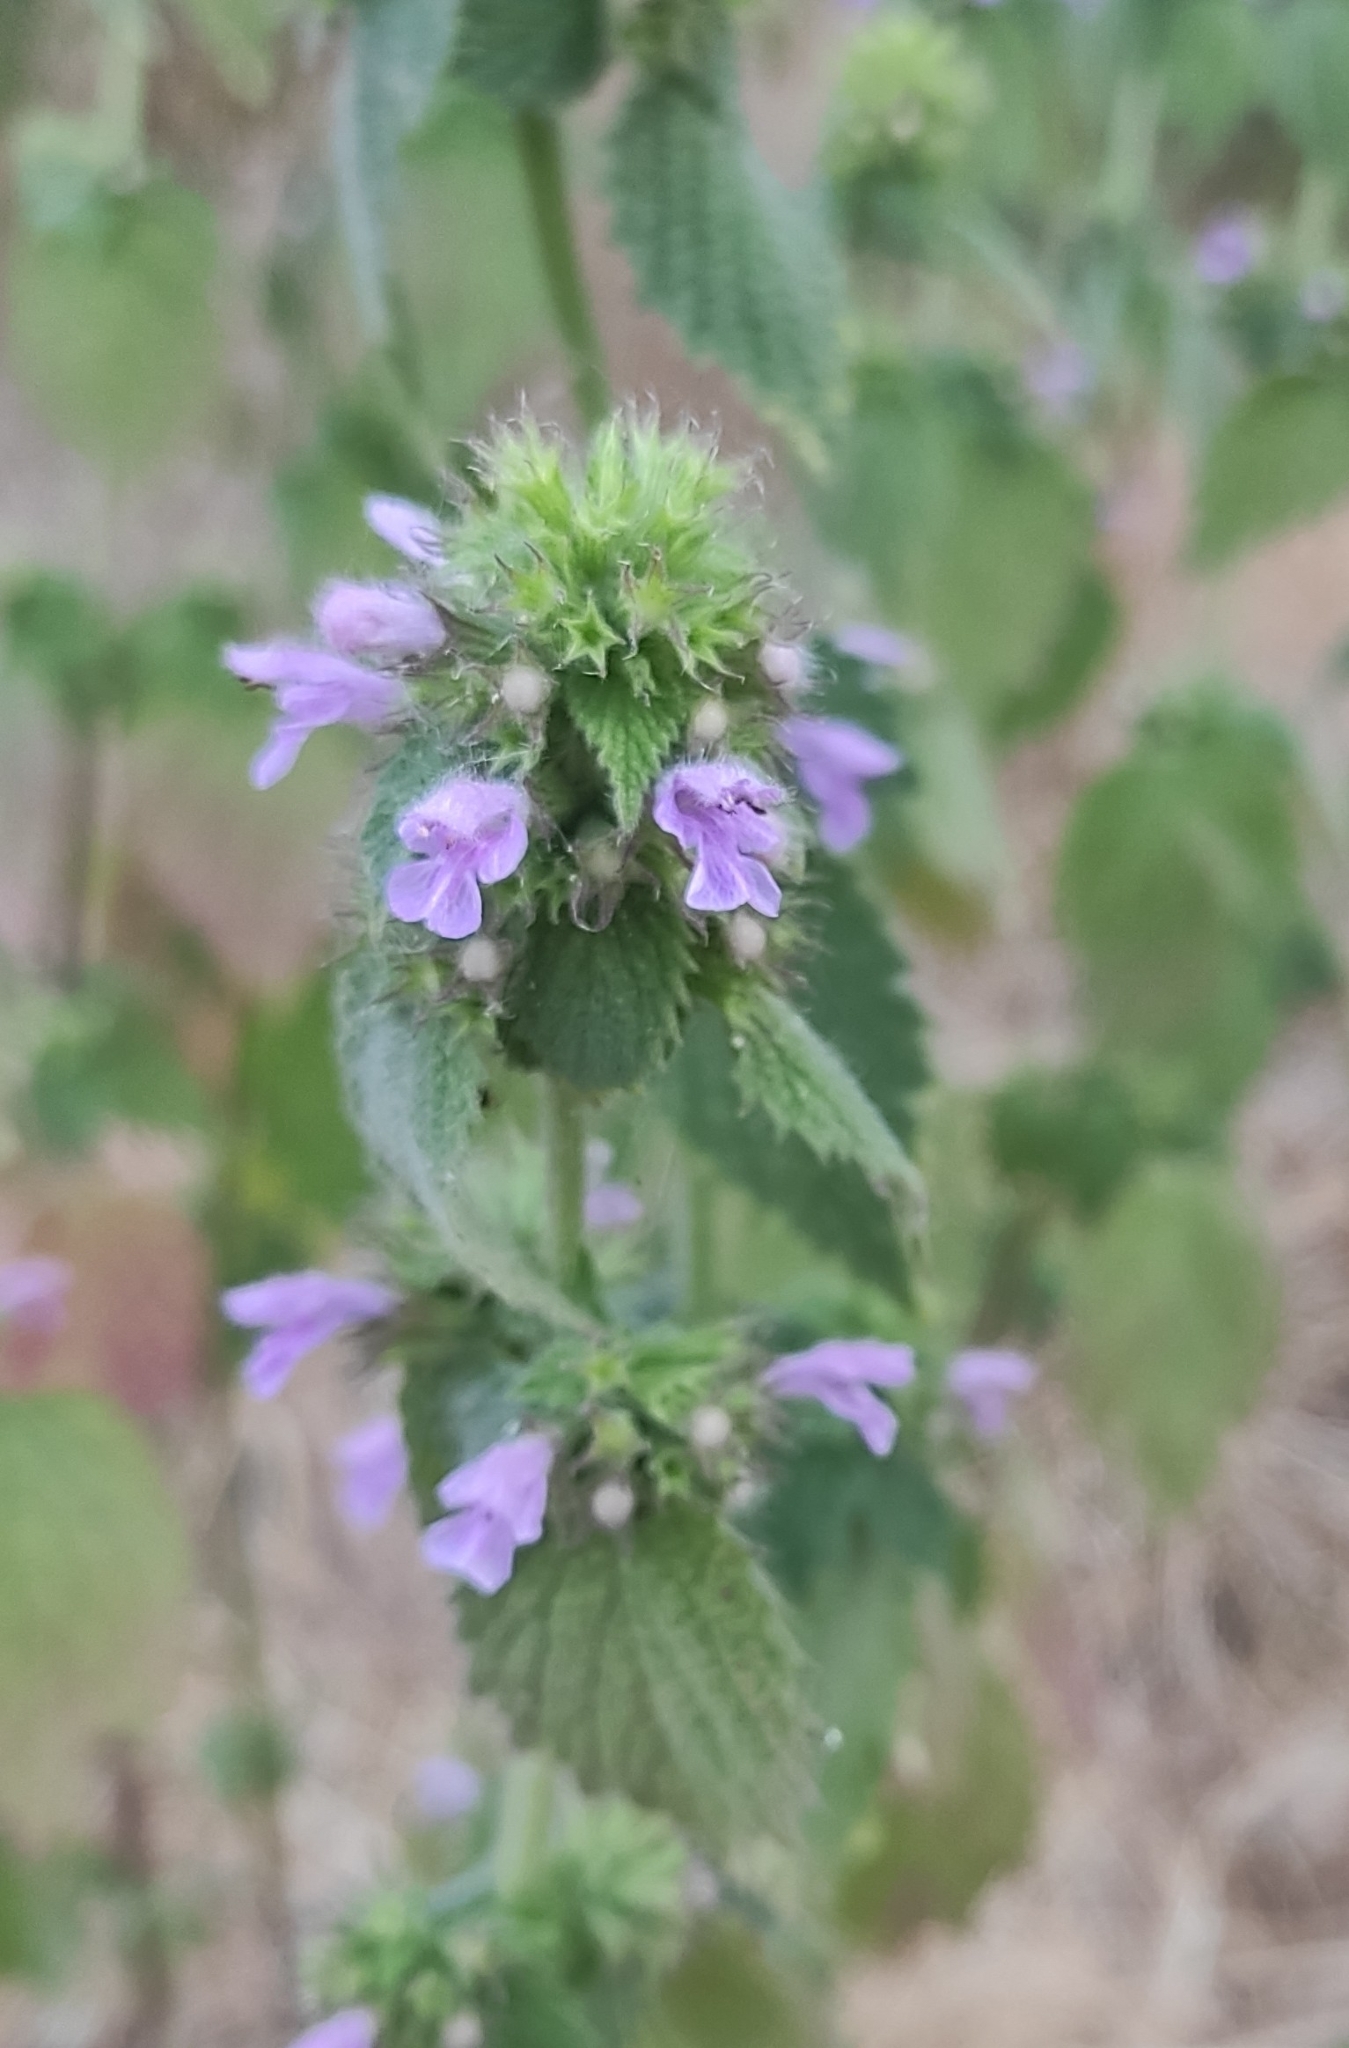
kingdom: Plantae
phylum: Tracheophyta
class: Magnoliopsida
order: Lamiales
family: Lamiaceae
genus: Ballota
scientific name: Ballota nigra
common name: Black horehound
